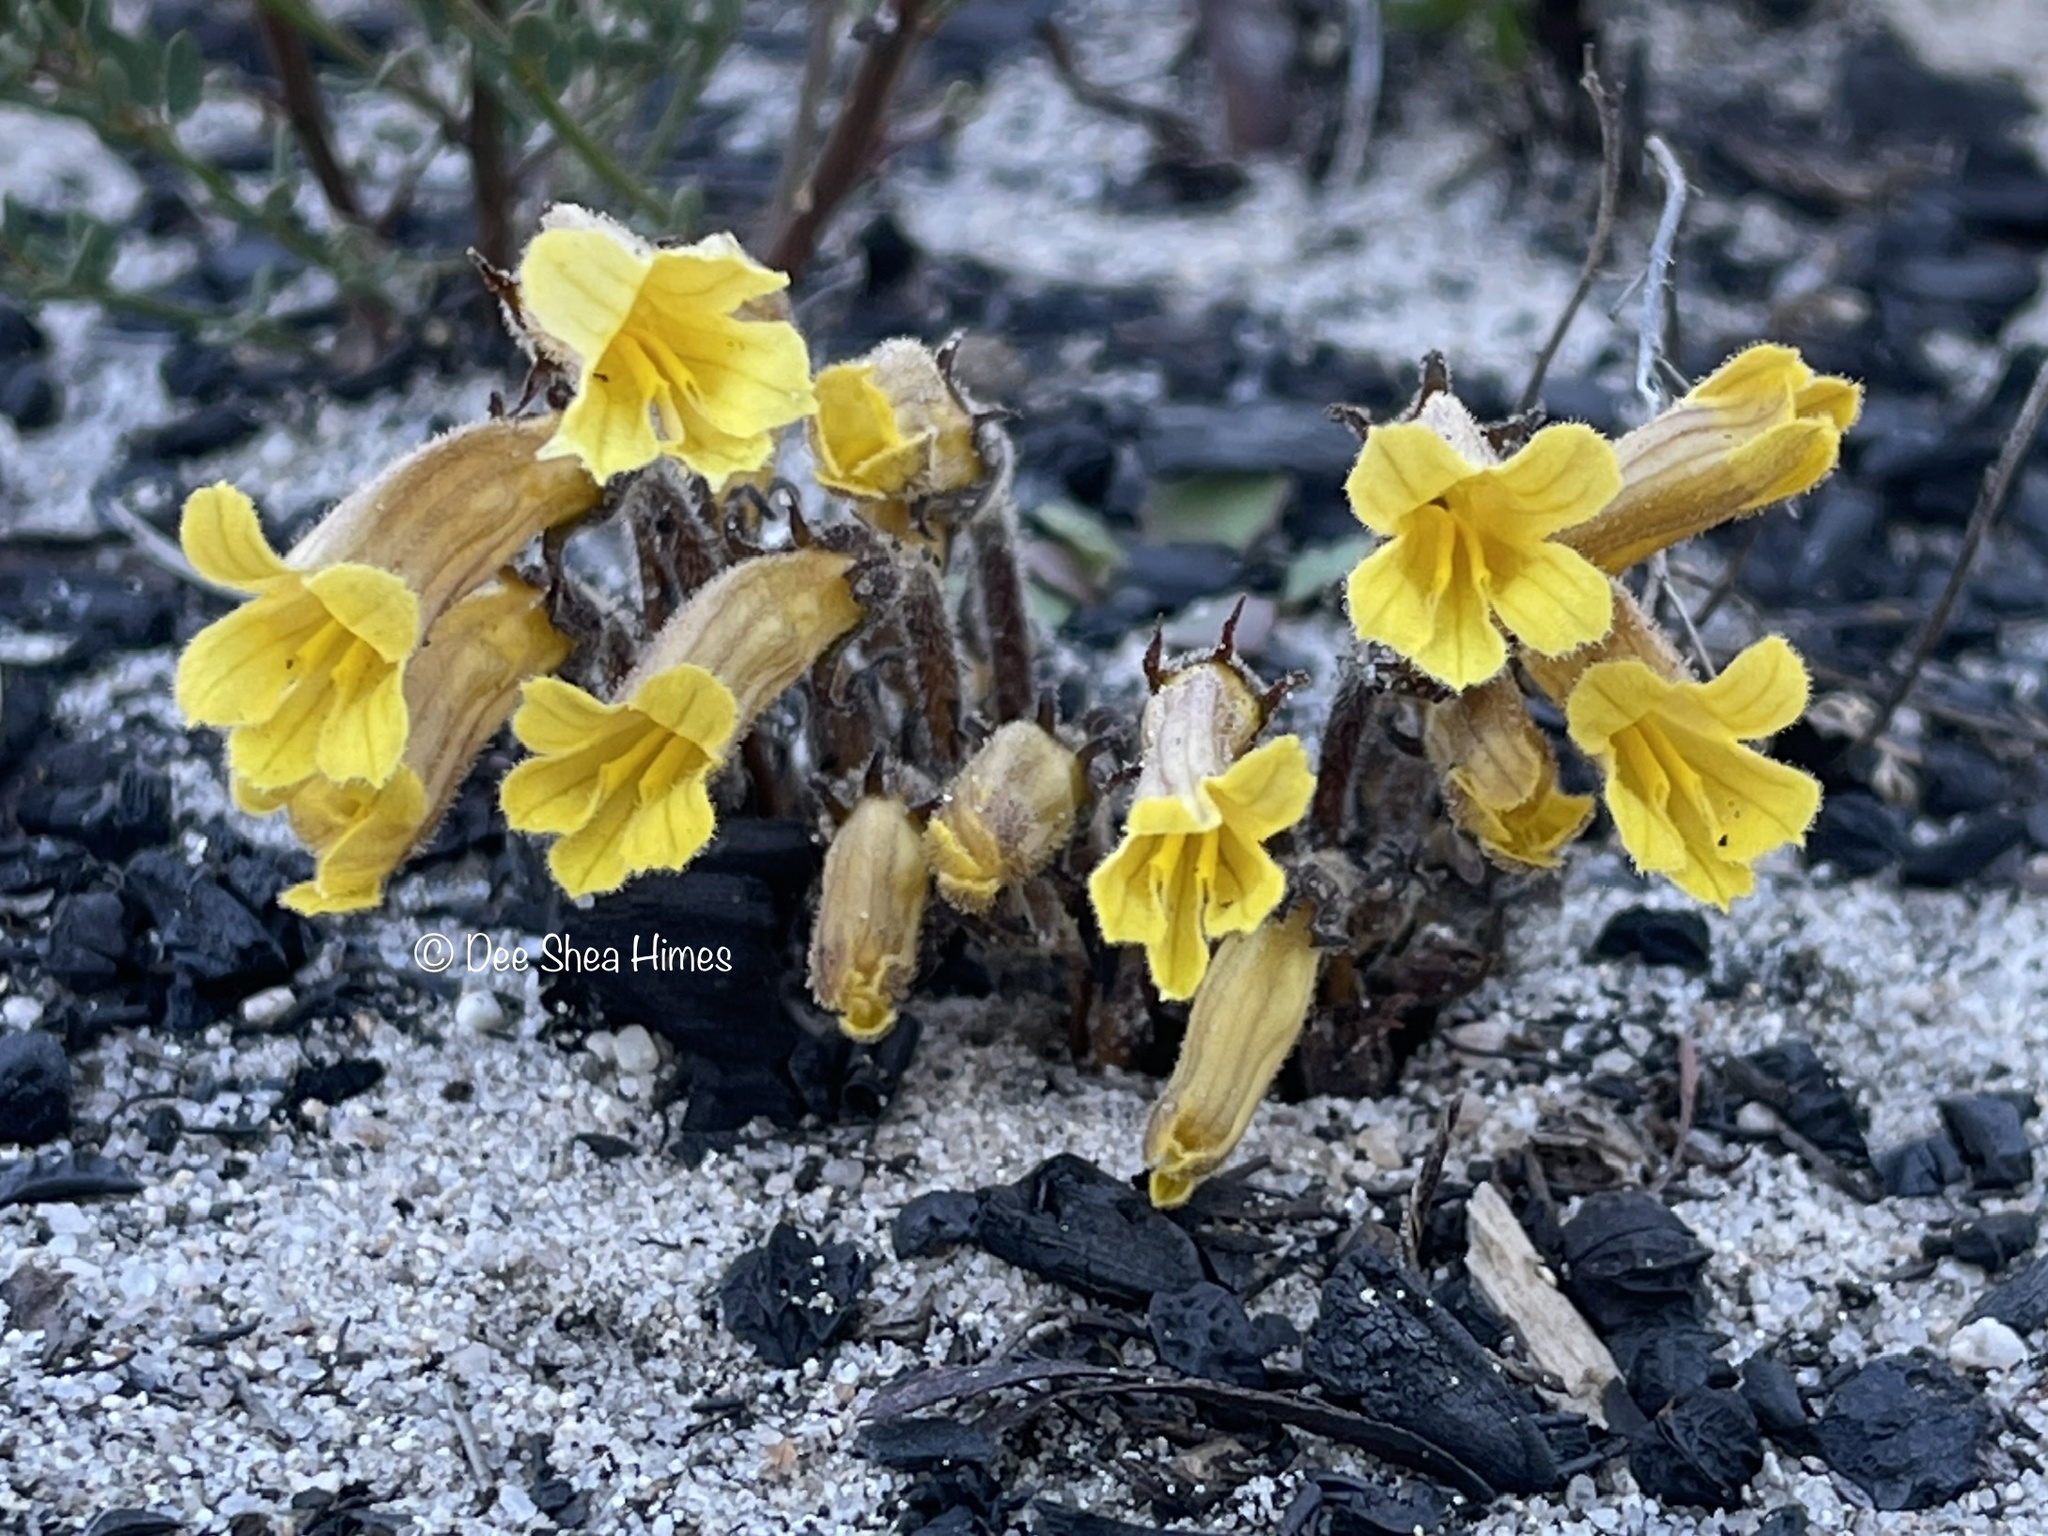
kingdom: Plantae
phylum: Tracheophyta
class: Magnoliopsida
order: Lamiales
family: Orobanchaceae
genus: Aphyllon
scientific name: Aphyllon franciscanum
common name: San francisco broomrape
